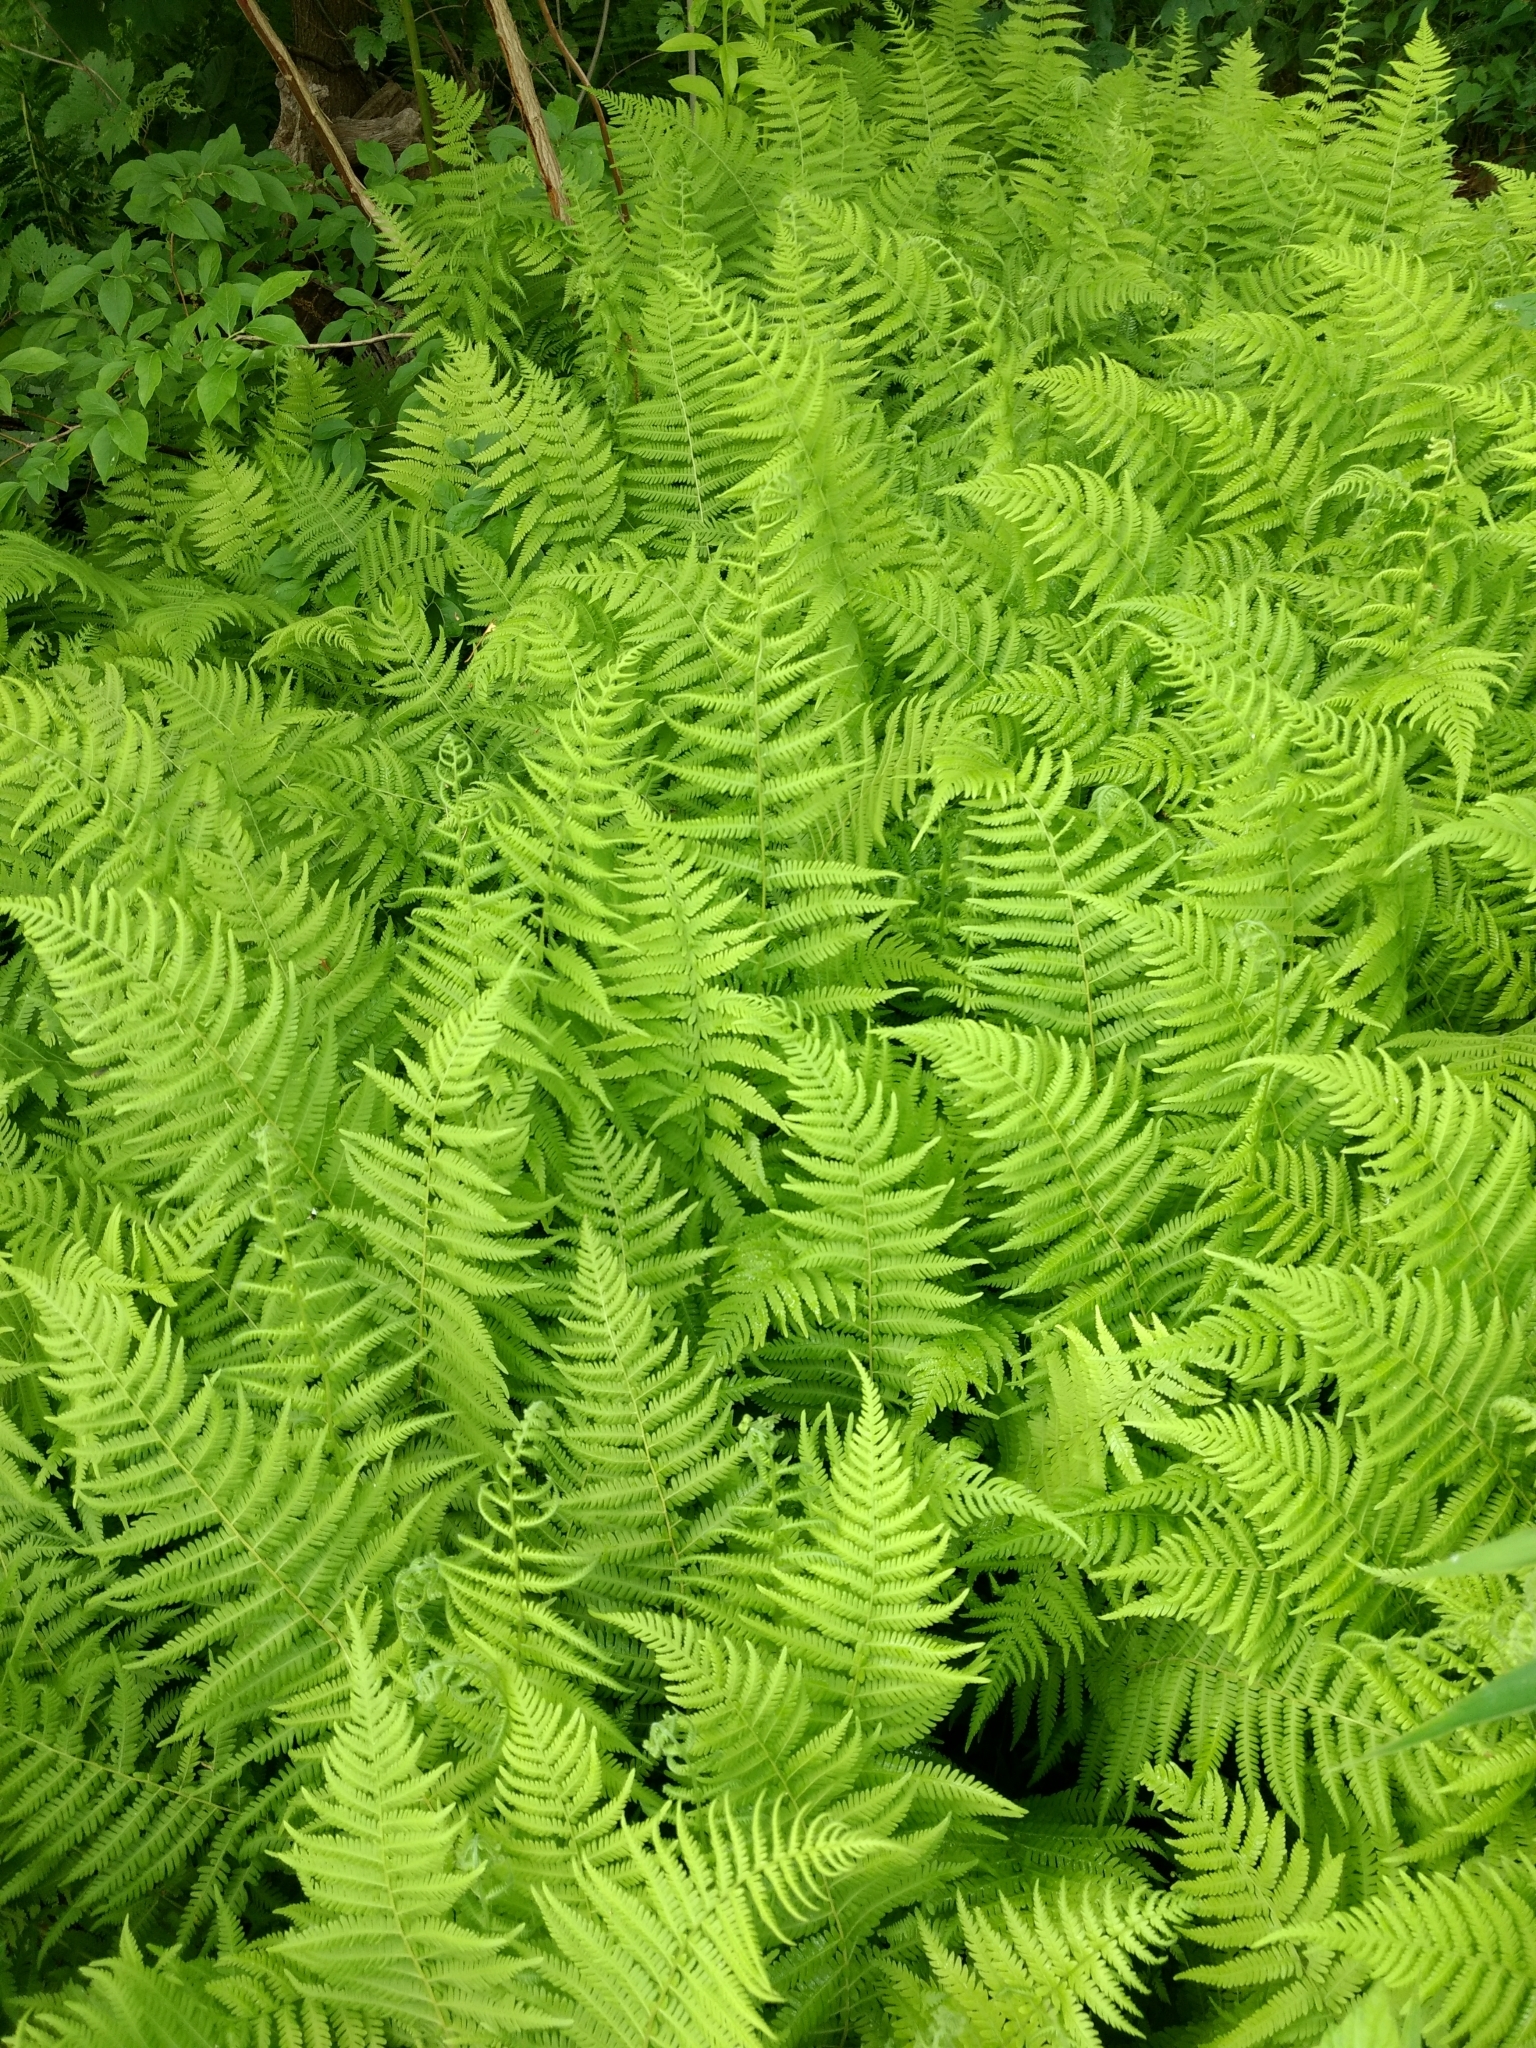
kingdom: Plantae
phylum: Tracheophyta
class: Polypodiopsida
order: Polypodiales
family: Thelypteridaceae
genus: Amauropelta
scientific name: Amauropelta noveboracensis
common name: New york fern
